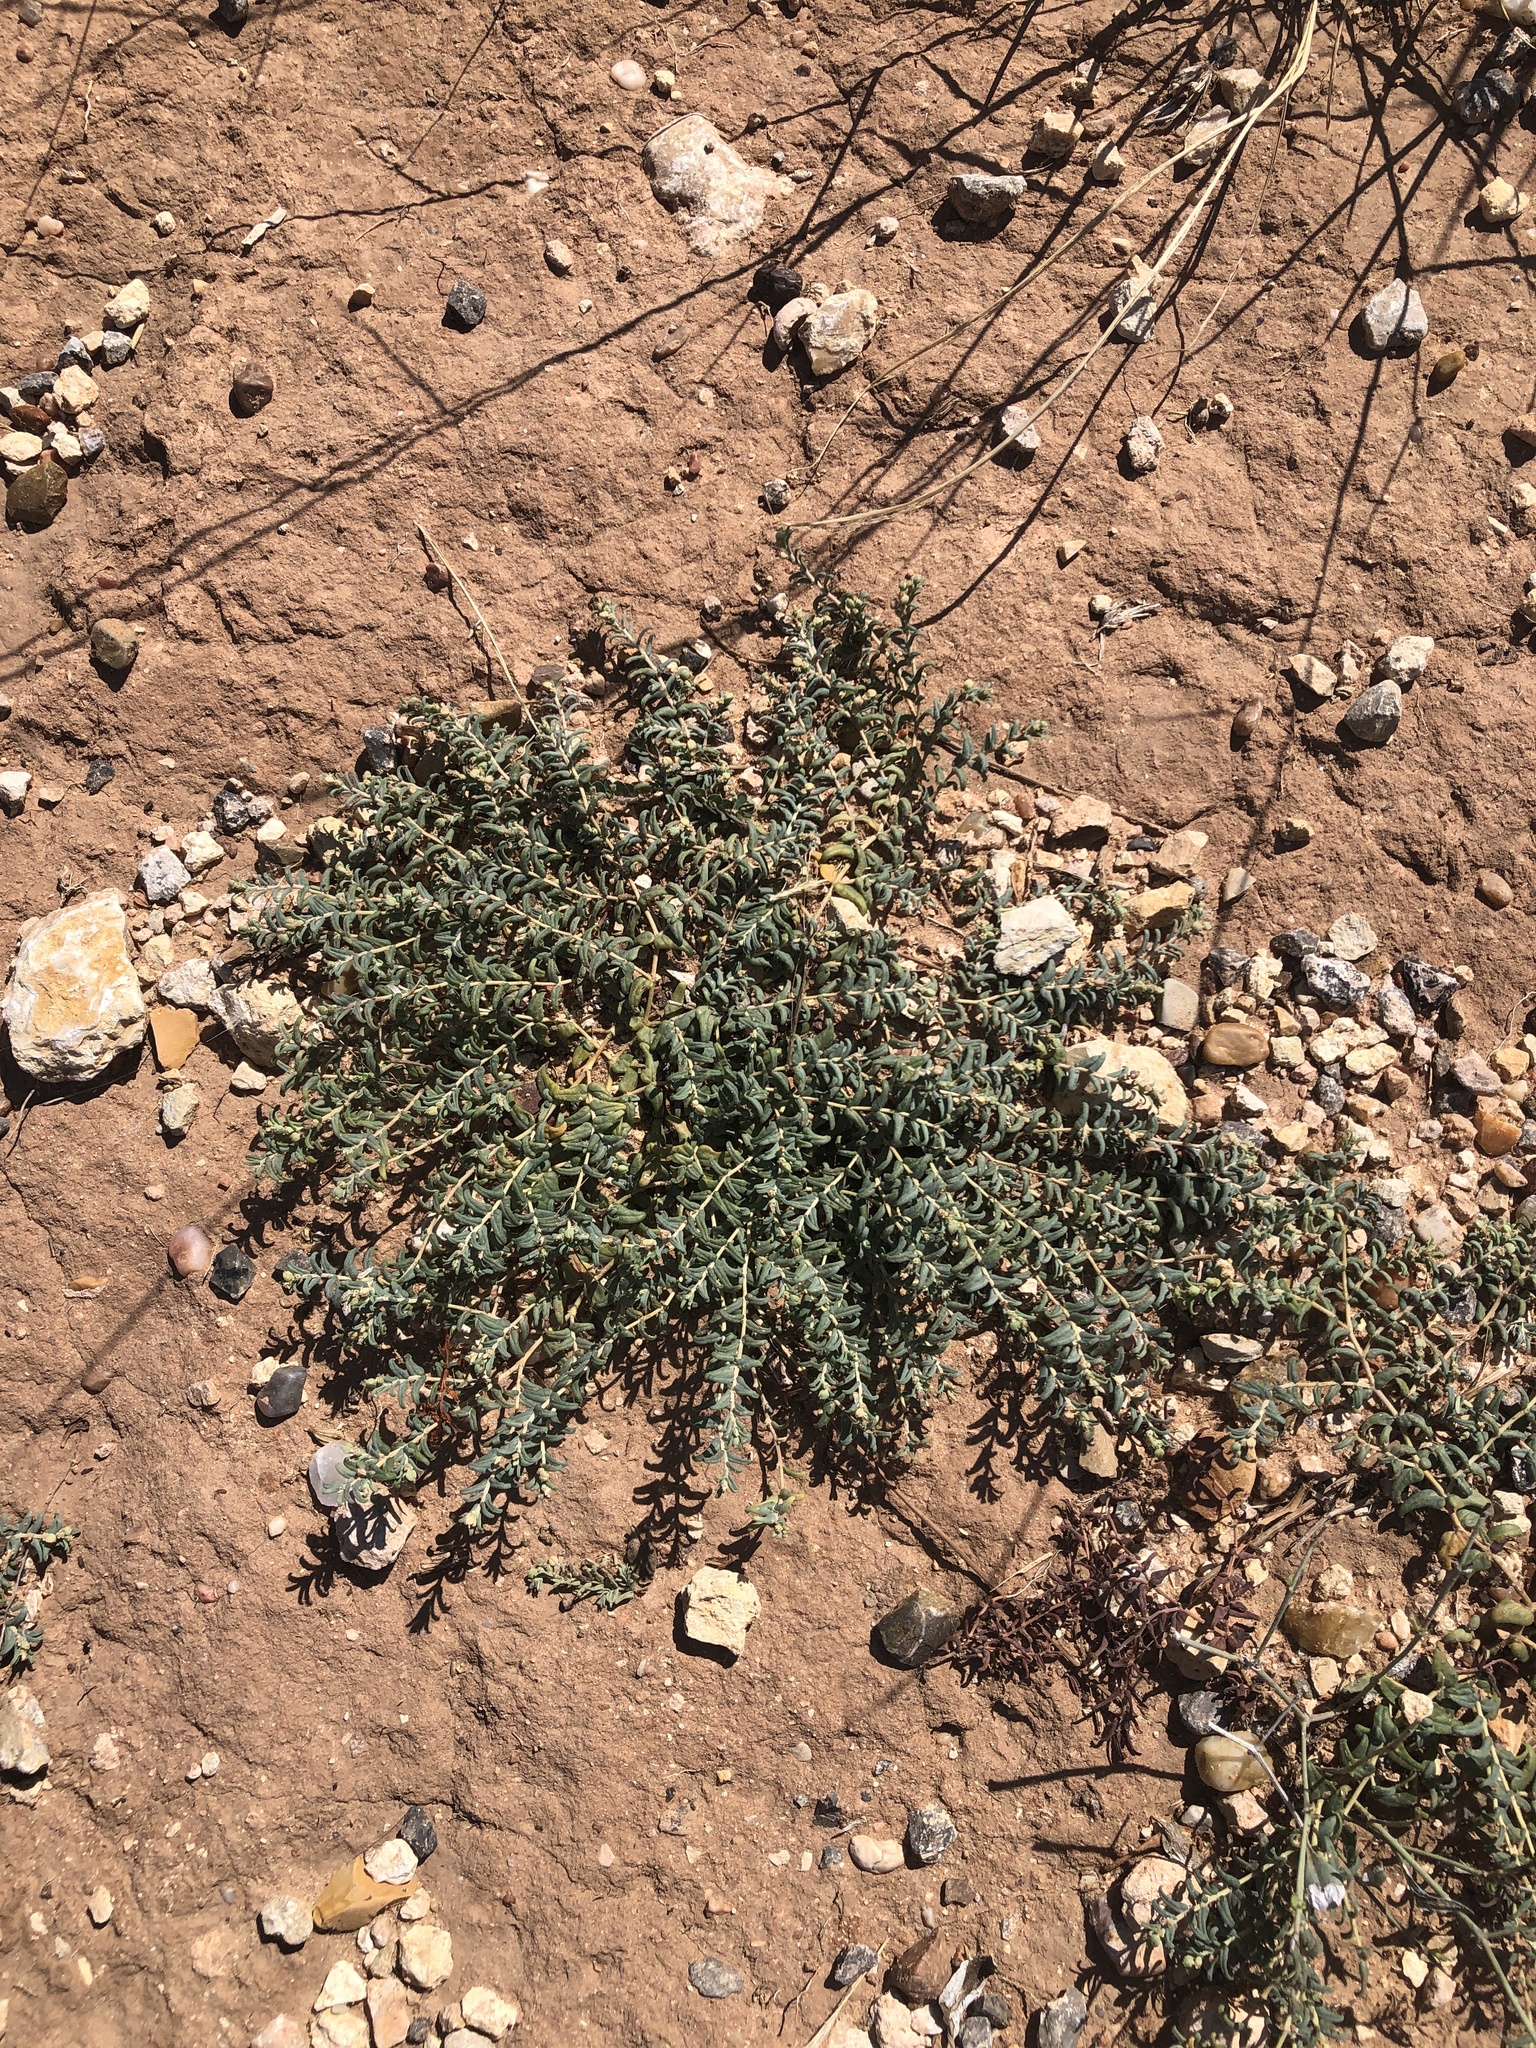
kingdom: Plantae
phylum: Tracheophyta
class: Magnoliopsida
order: Malpighiales
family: Euphorbiaceae
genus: Euphorbia
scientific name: Euphorbia lata
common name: Hoary euphorbia
